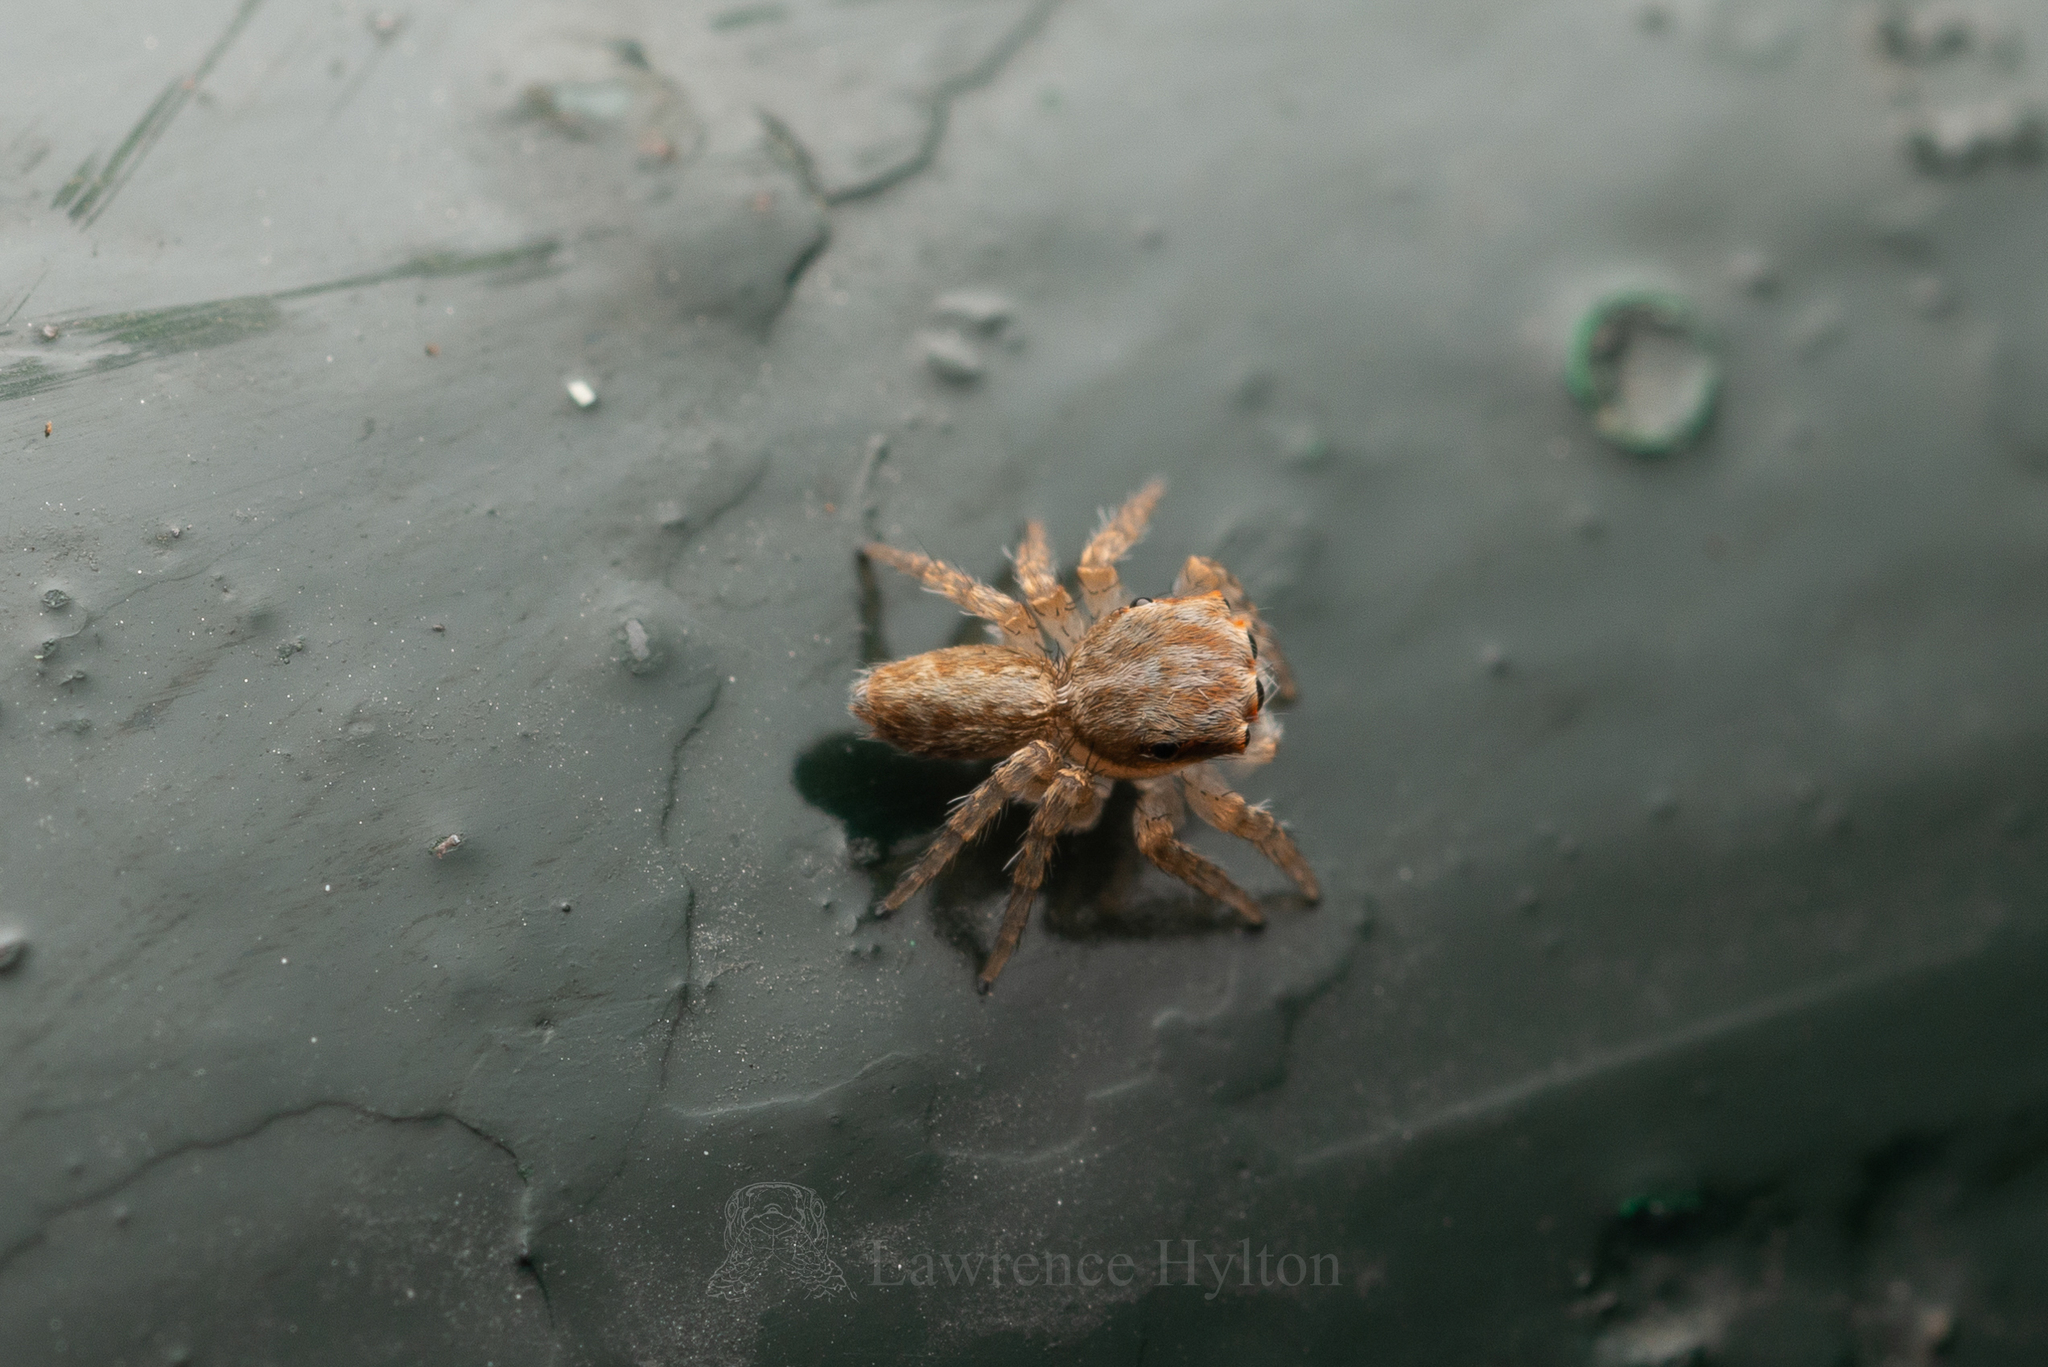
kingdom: Animalia
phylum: Arthropoda
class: Arachnida
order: Araneae
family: Salticidae
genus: Cytaea
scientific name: Cytaea maoming
